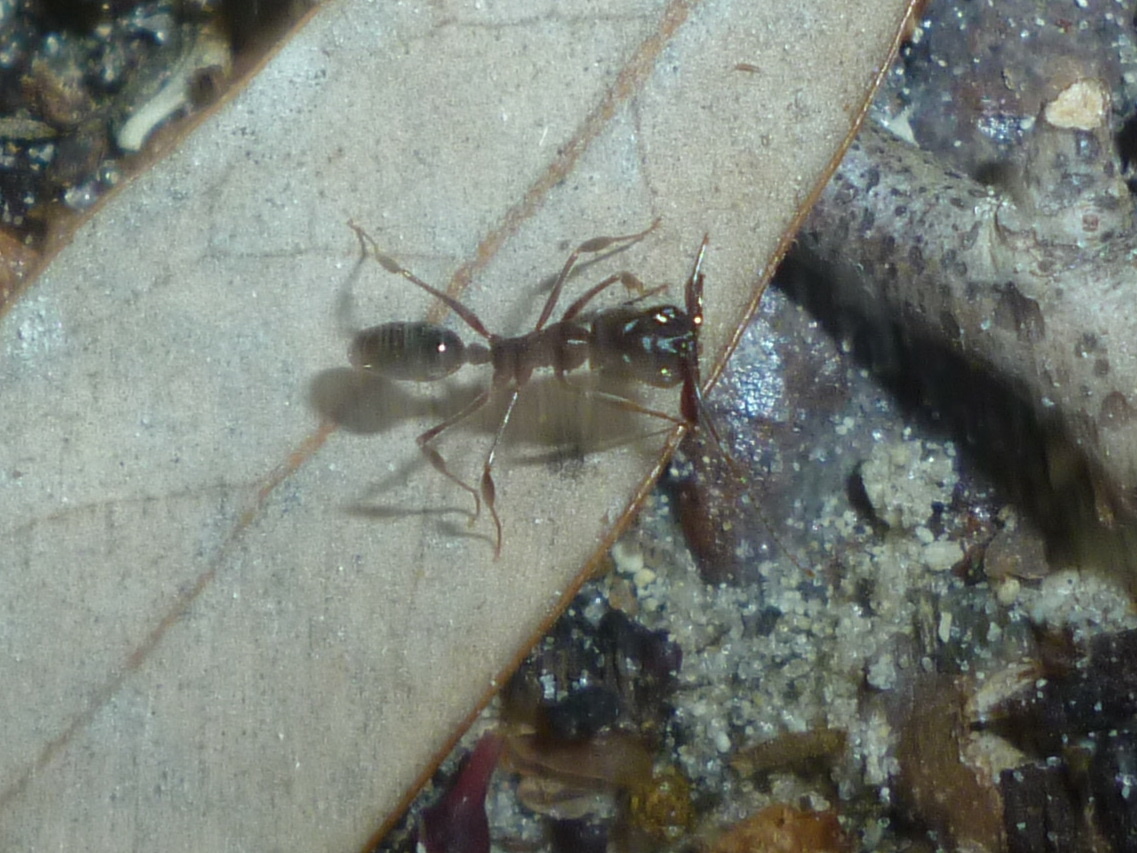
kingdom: Animalia
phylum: Arthropoda
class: Insecta
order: Hymenoptera
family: Formicidae
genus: Odontomachus
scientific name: Odontomachus brunneus
